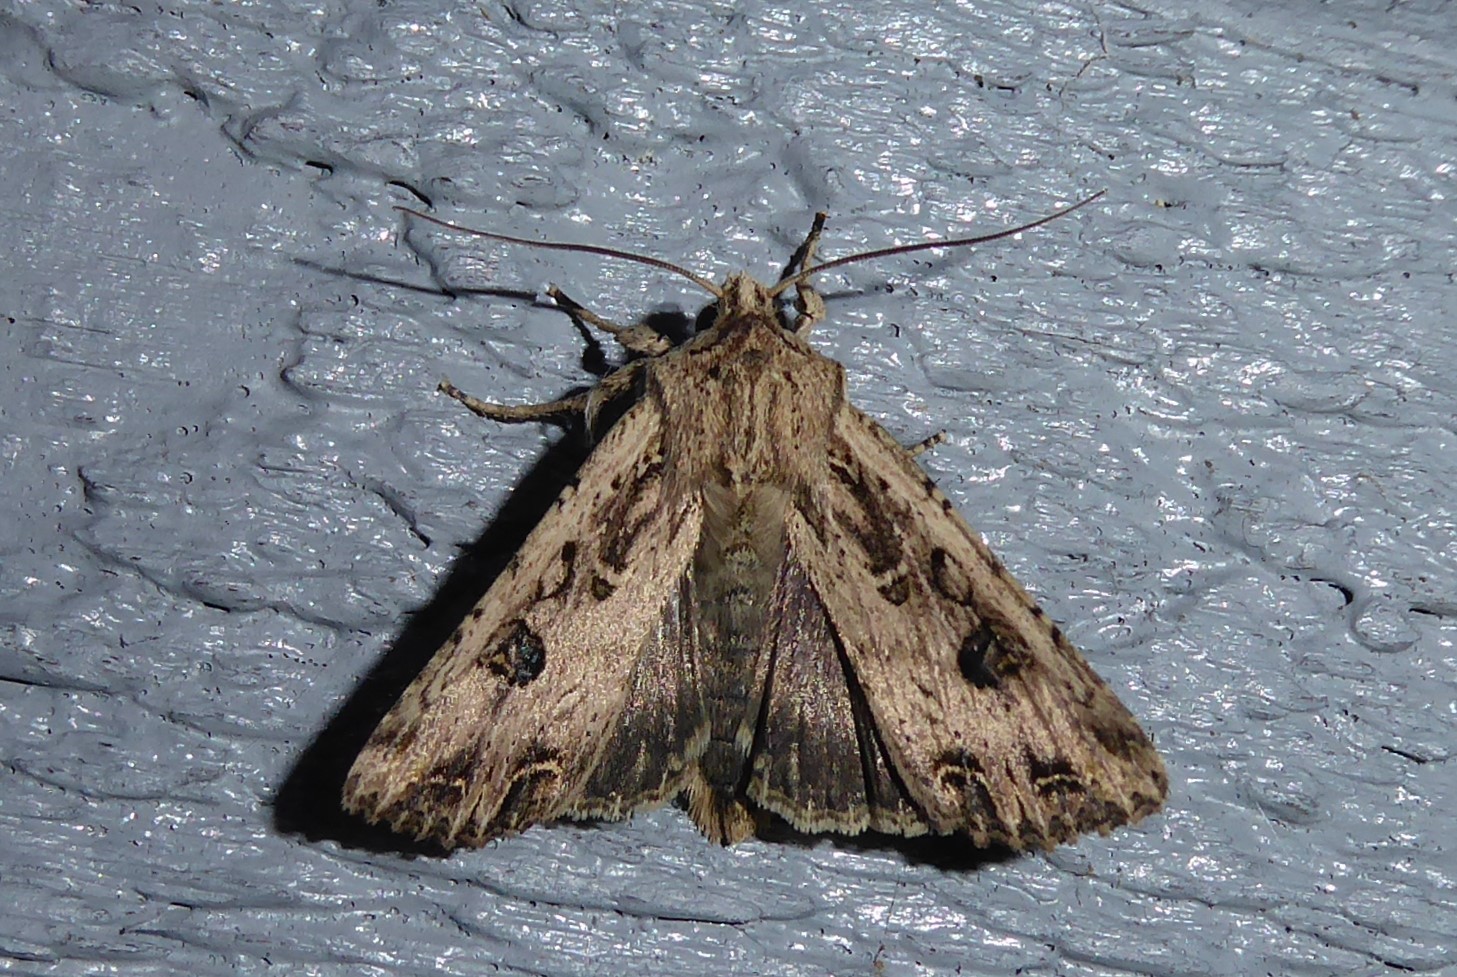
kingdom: Animalia
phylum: Arthropoda
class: Insecta
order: Lepidoptera
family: Noctuidae
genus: Ichneutica
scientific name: Ichneutica lignana
